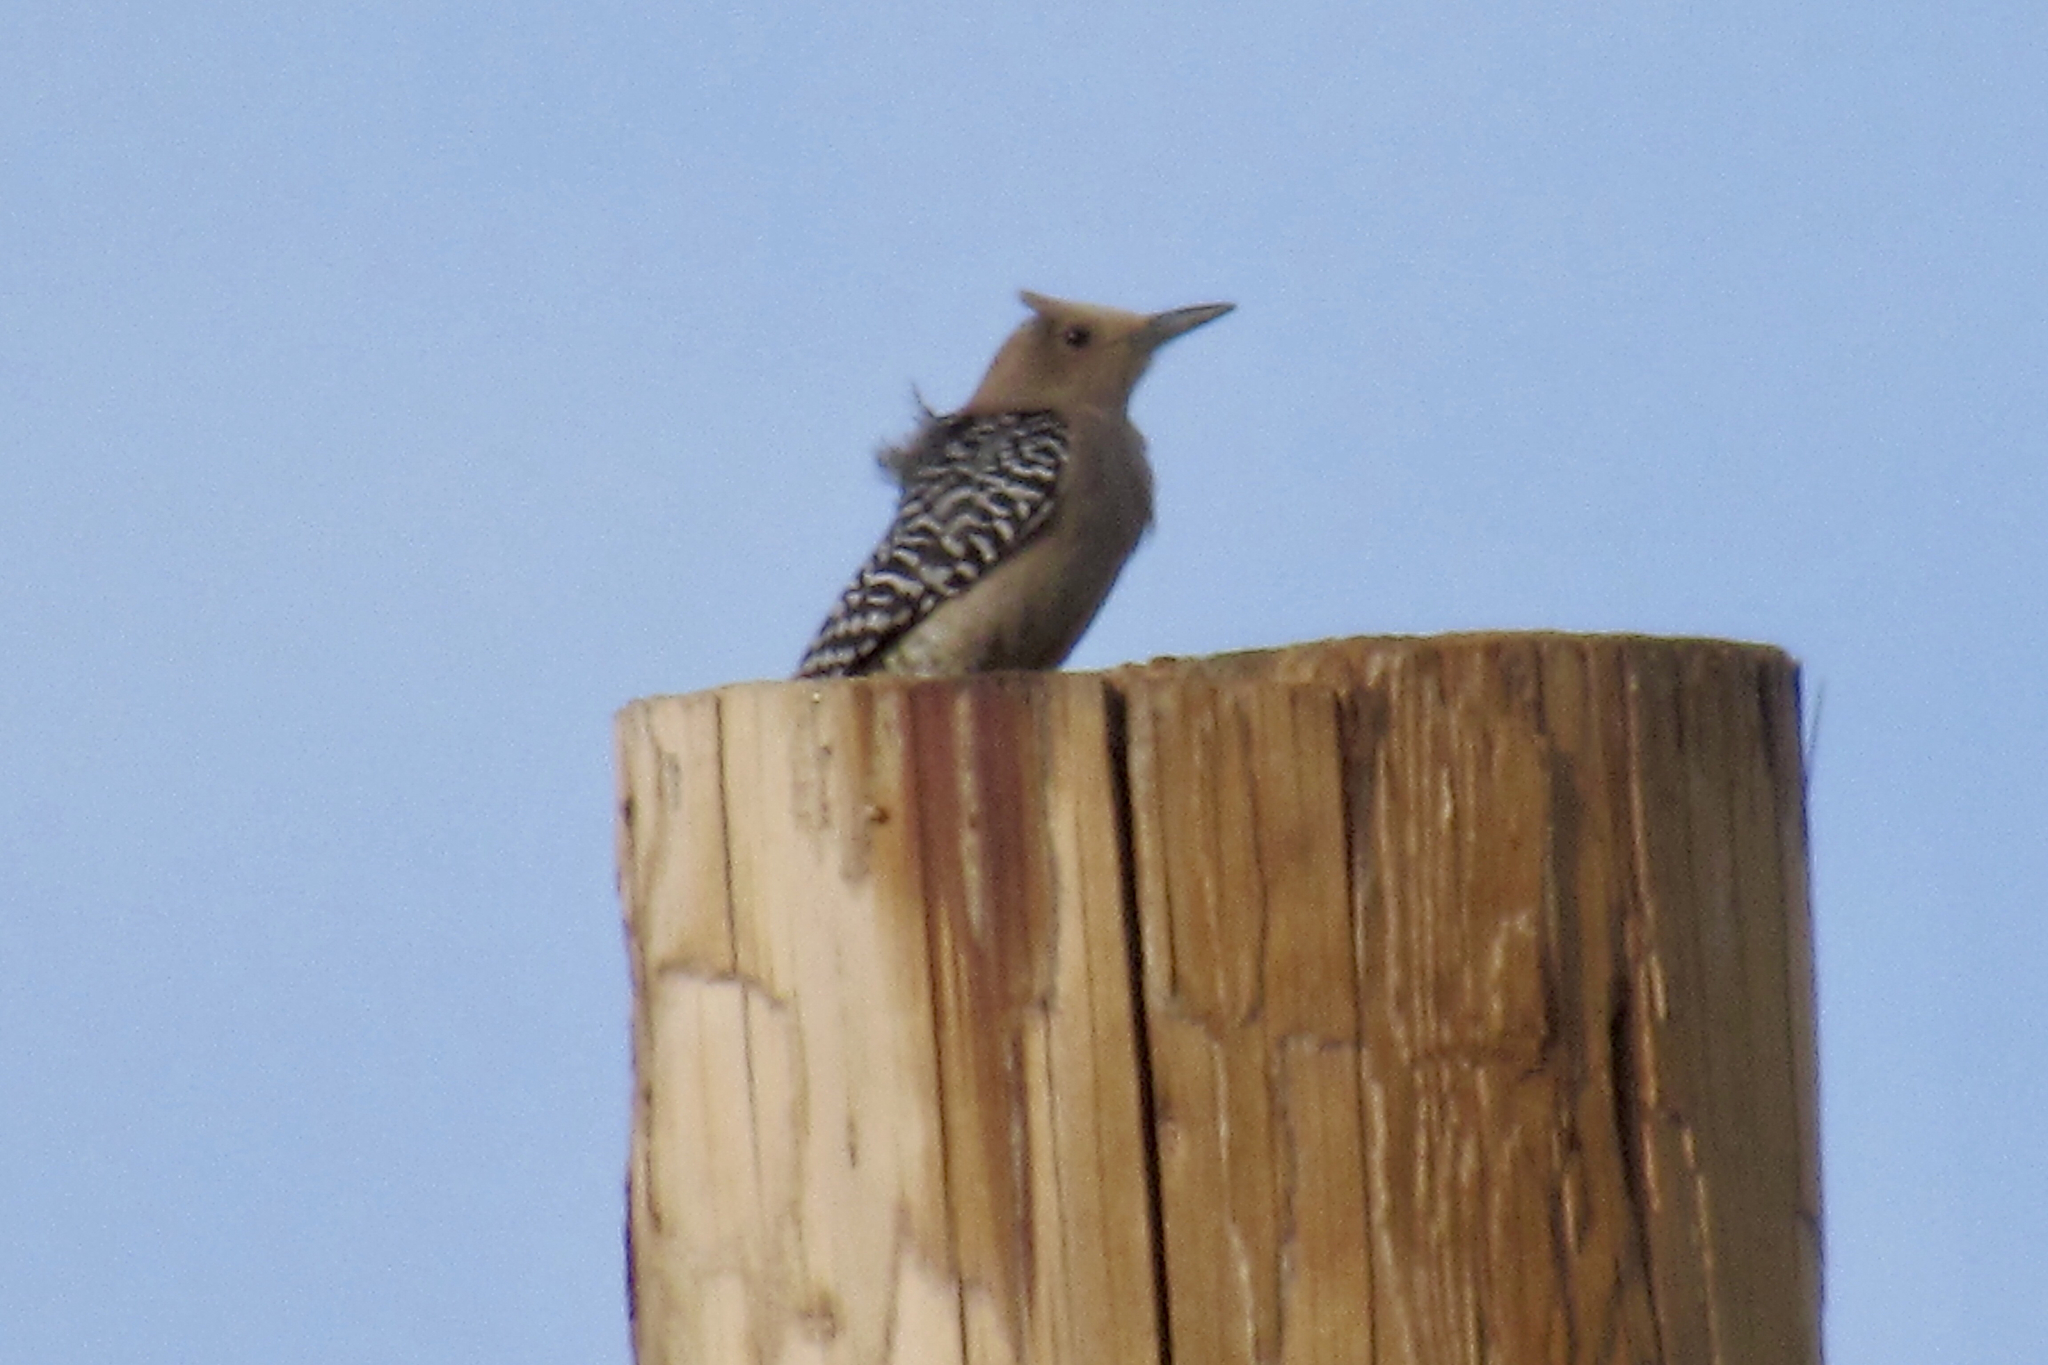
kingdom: Animalia
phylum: Chordata
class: Aves
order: Piciformes
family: Picidae
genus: Melanerpes
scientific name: Melanerpes uropygialis
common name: Gila woodpecker
